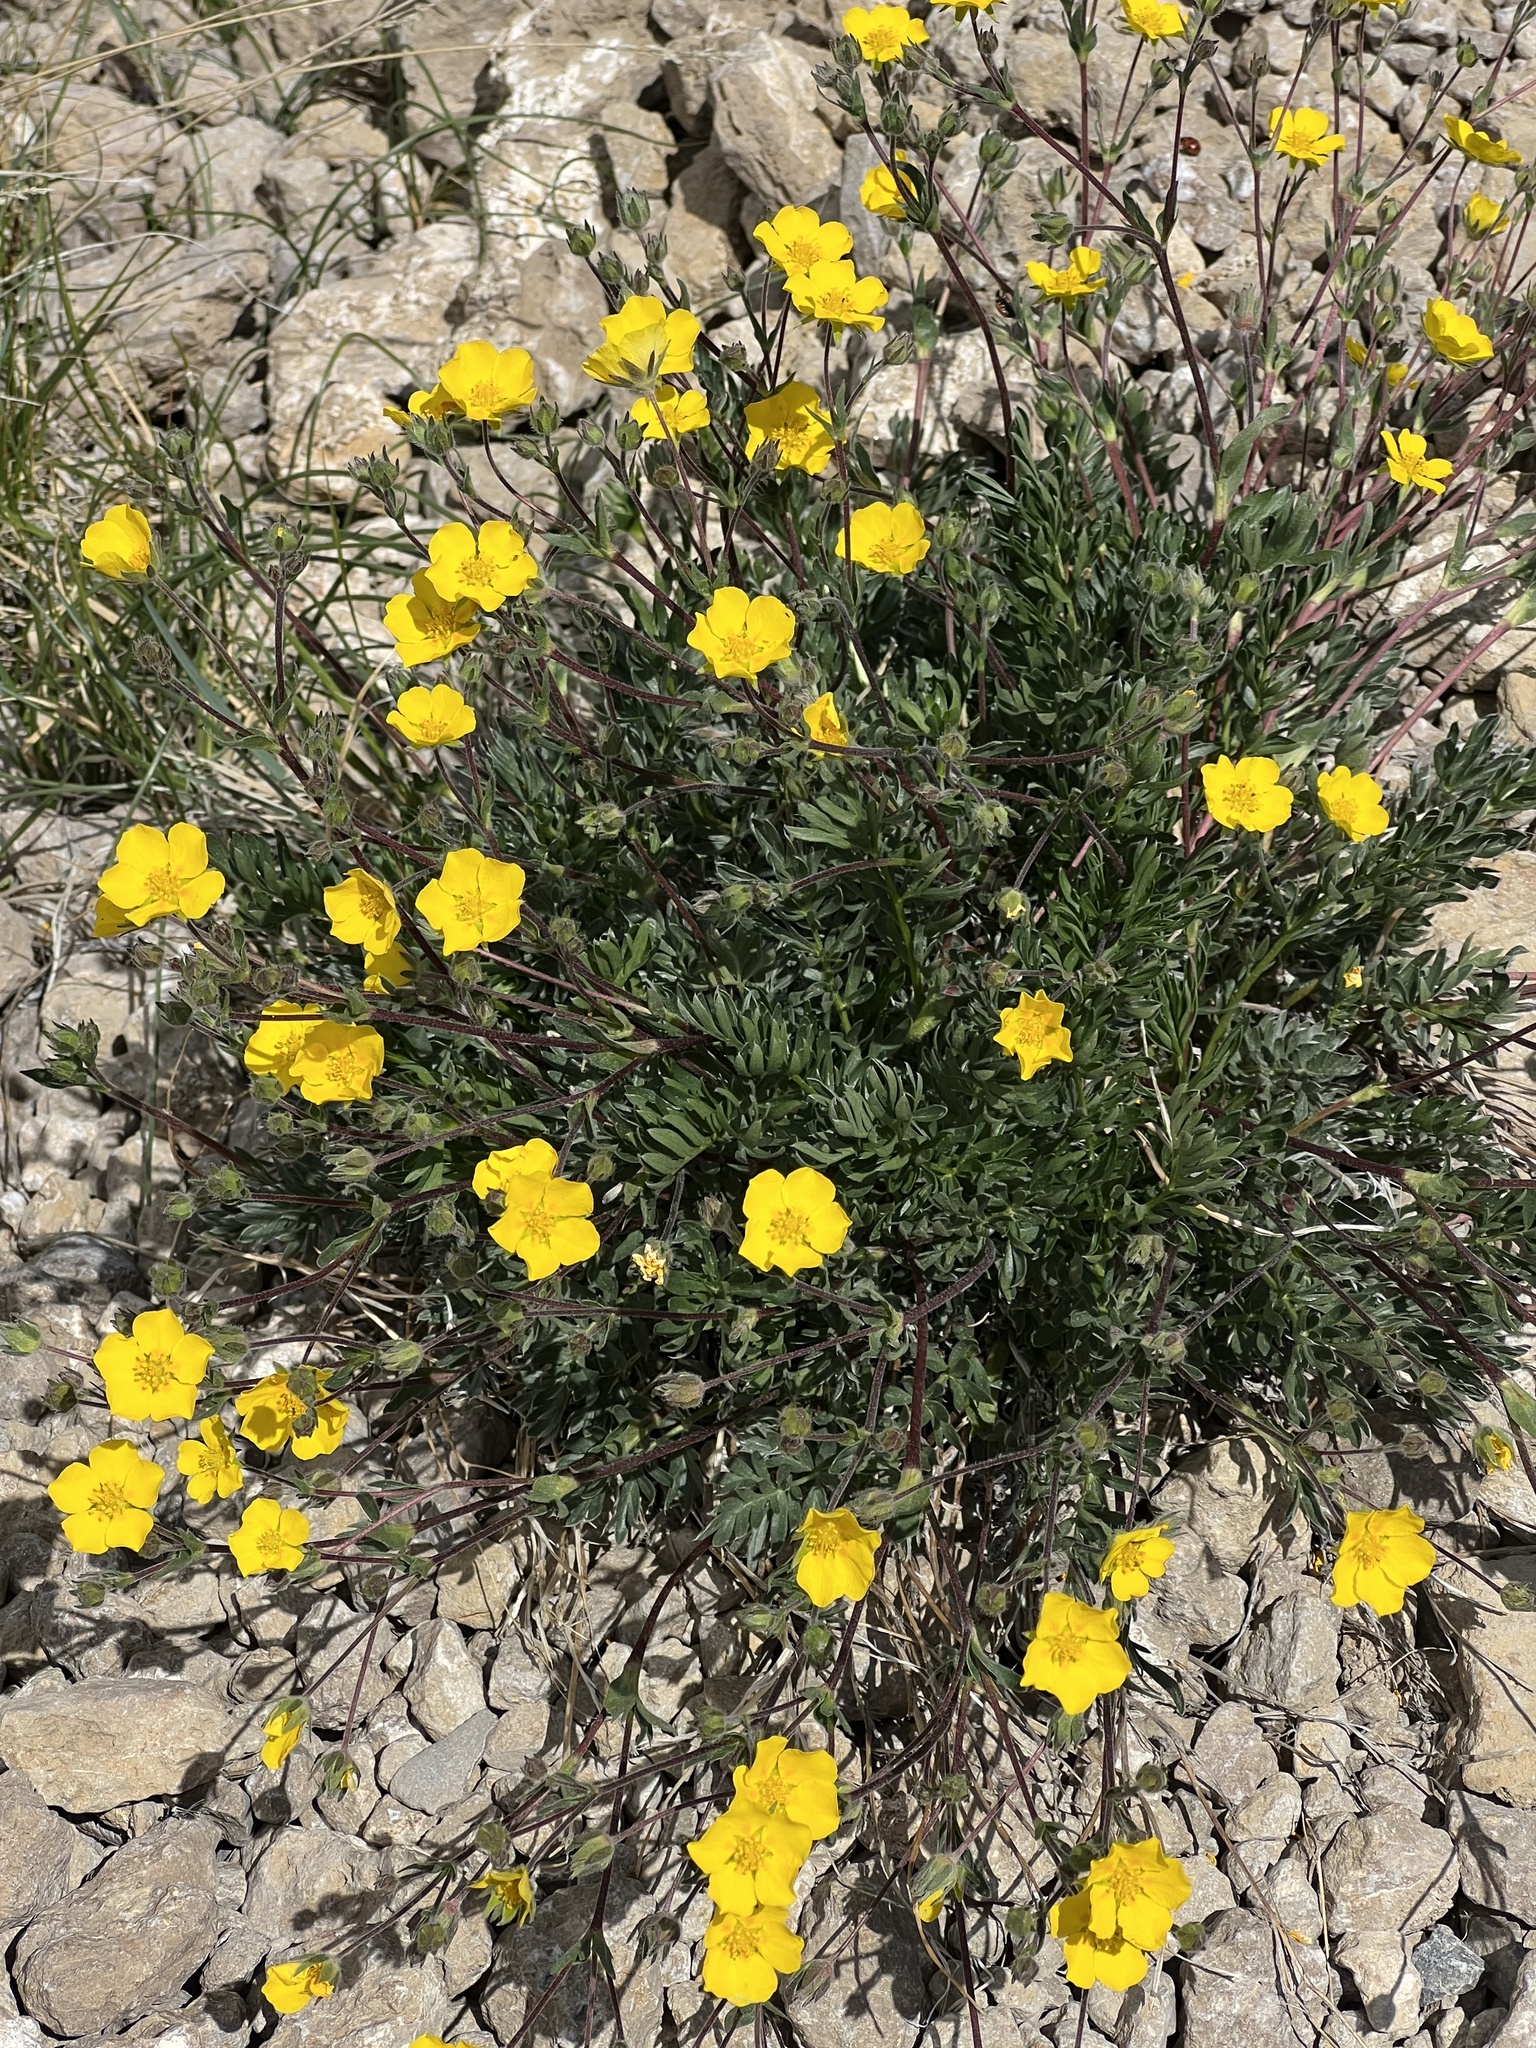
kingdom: Plantae
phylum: Tracheophyta
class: Magnoliopsida
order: Rosales
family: Rosaceae
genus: Geum
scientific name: Geum rossii
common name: Alpine avens
